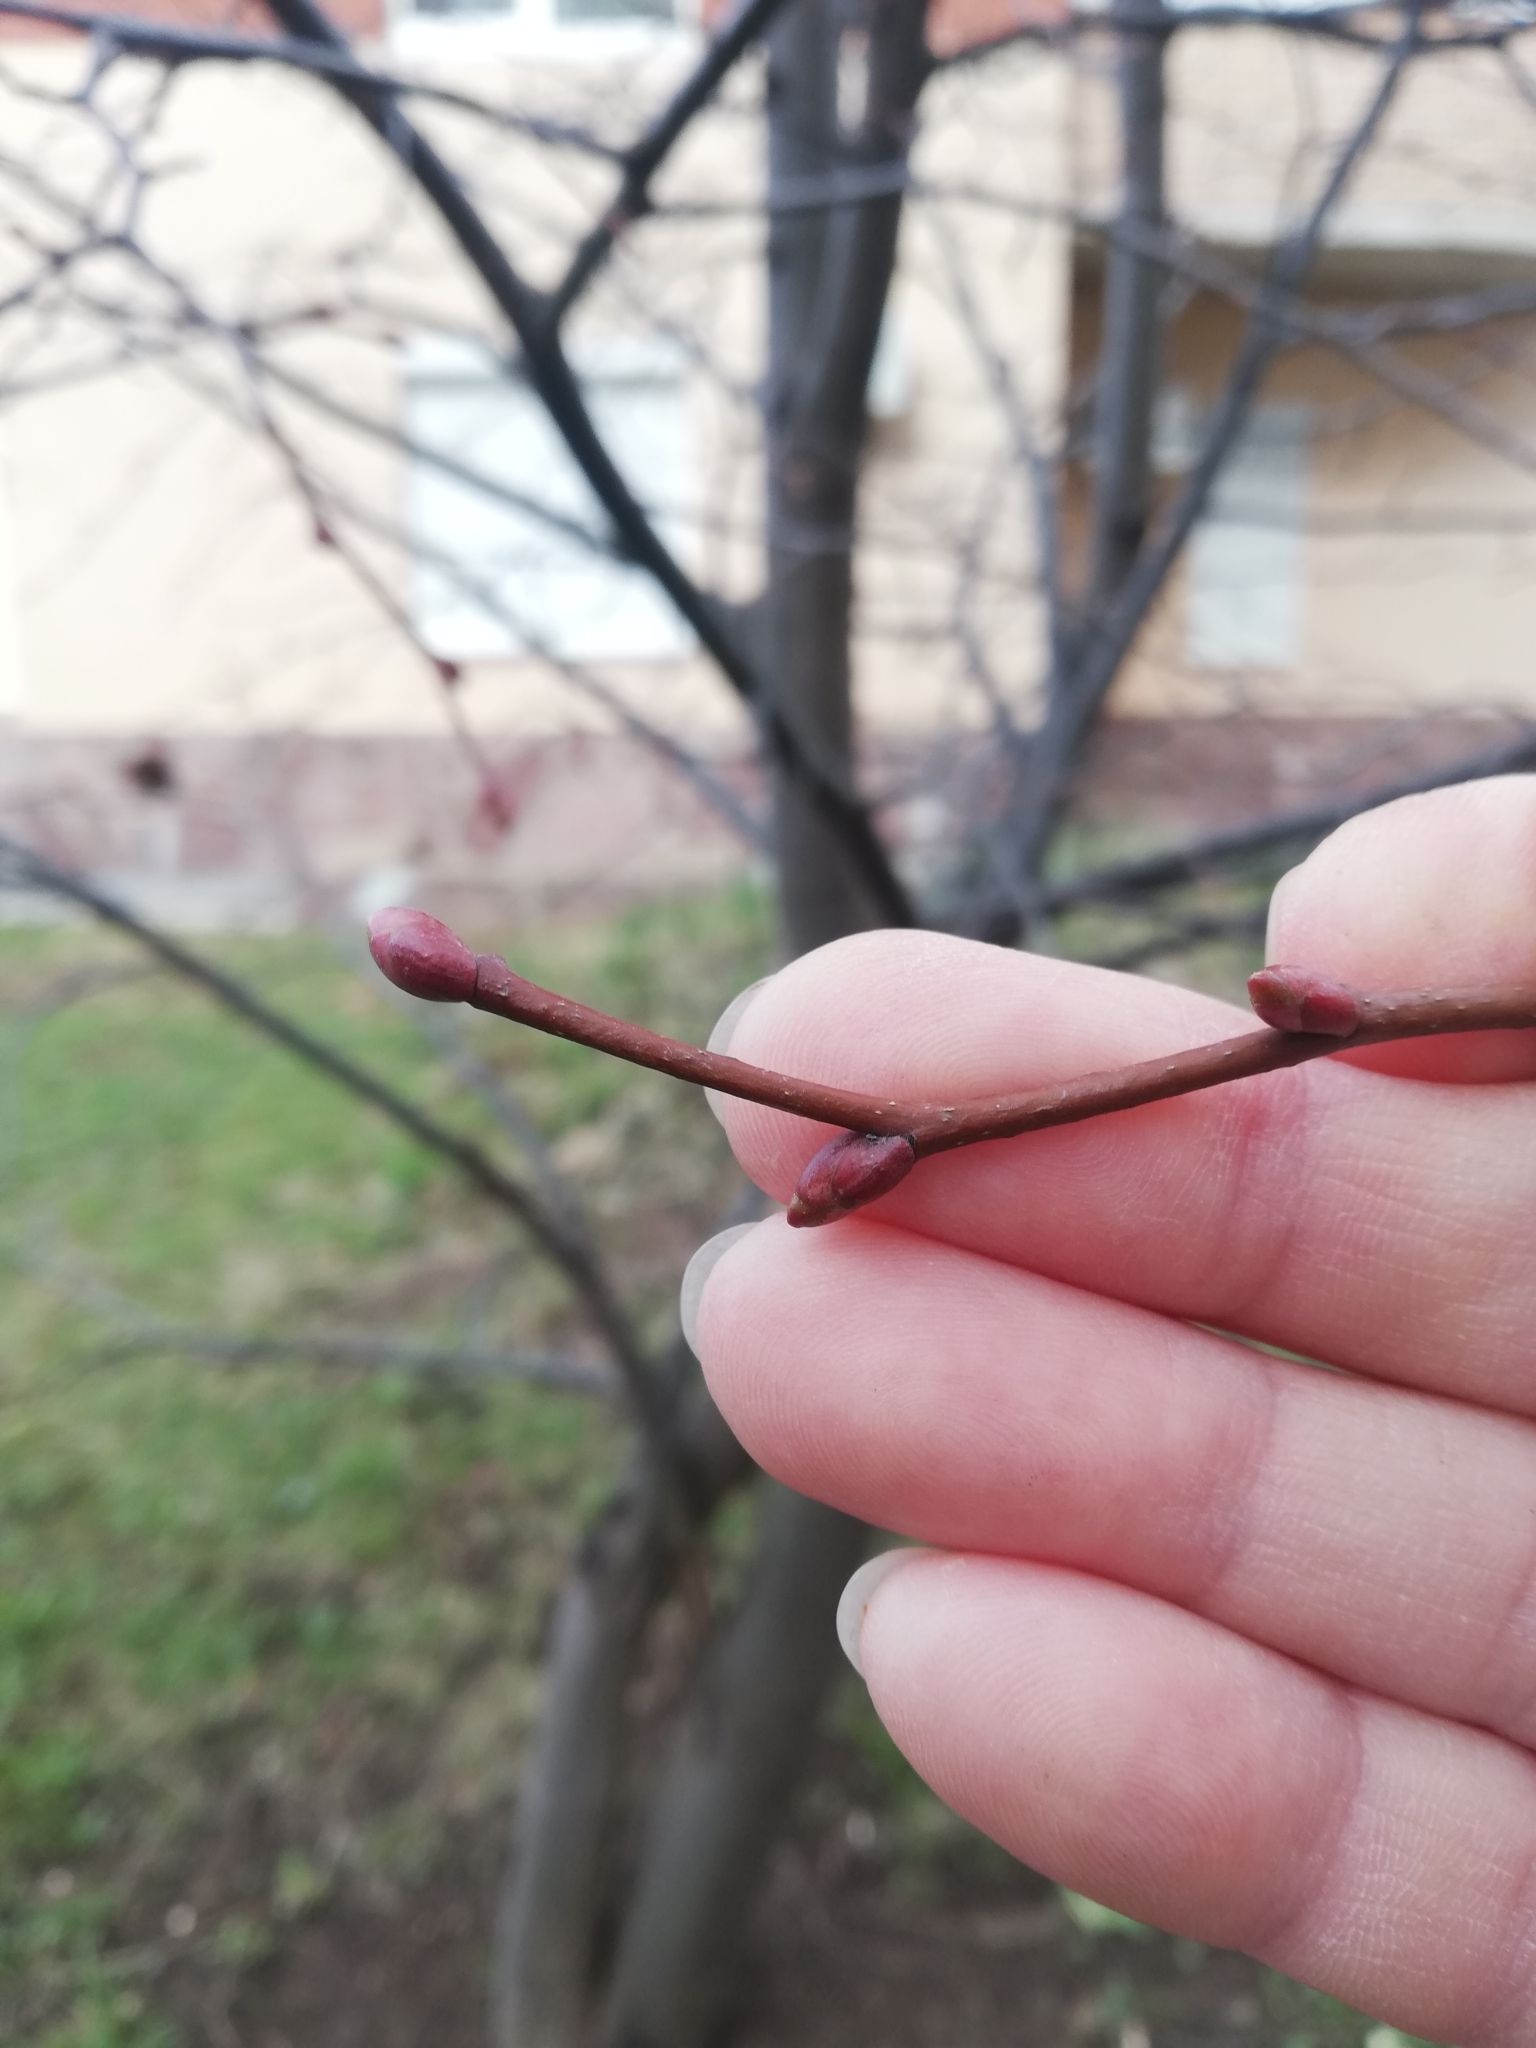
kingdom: Plantae
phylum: Tracheophyta
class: Magnoliopsida
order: Malvales
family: Malvaceae
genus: Tilia
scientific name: Tilia cordata
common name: Small-leaved lime
